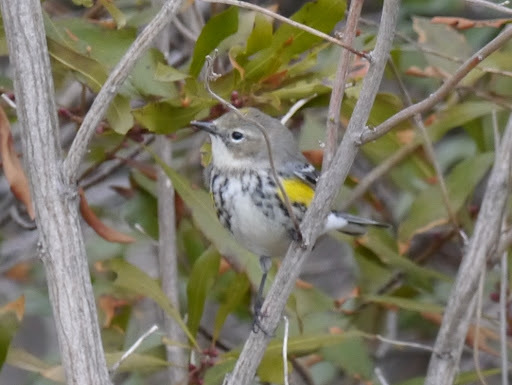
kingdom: Animalia
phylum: Chordata
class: Aves
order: Passeriformes
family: Parulidae
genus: Setophaga
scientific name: Setophaga coronata
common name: Myrtle warbler
